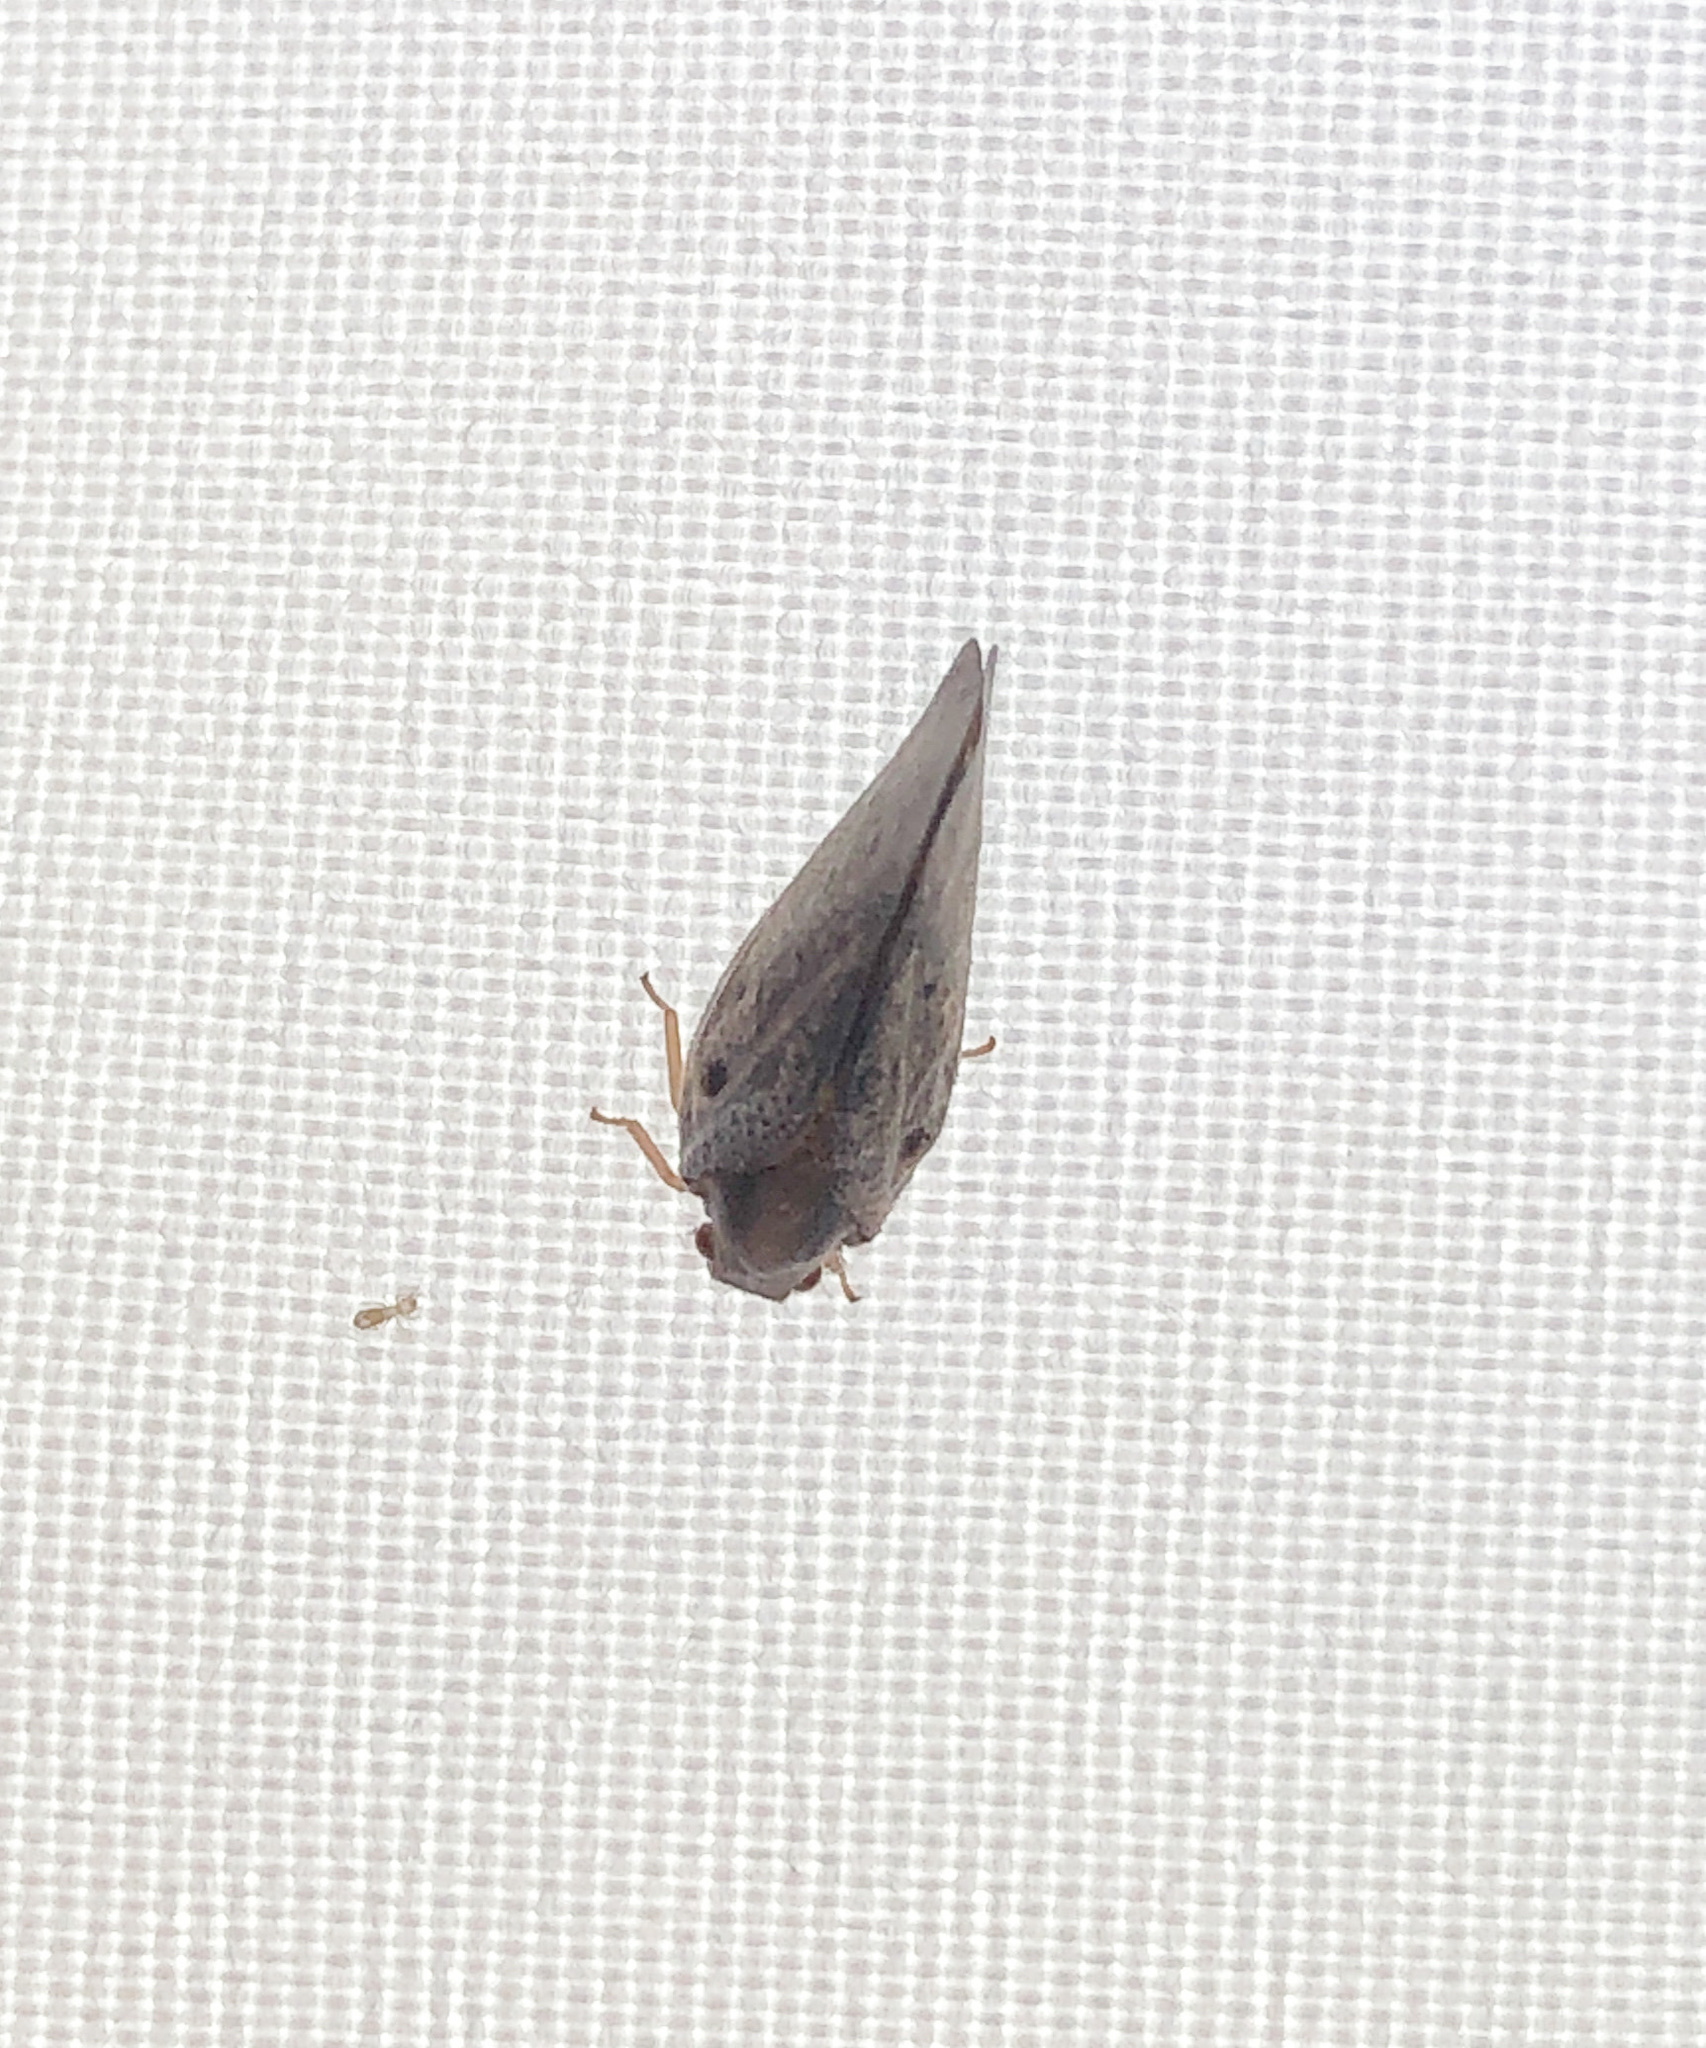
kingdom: Animalia
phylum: Arthropoda
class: Insecta
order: Hemiptera
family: Flatidae
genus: Metcalfa
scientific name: Metcalfa pruinosa
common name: Citrus flatid planthopper
